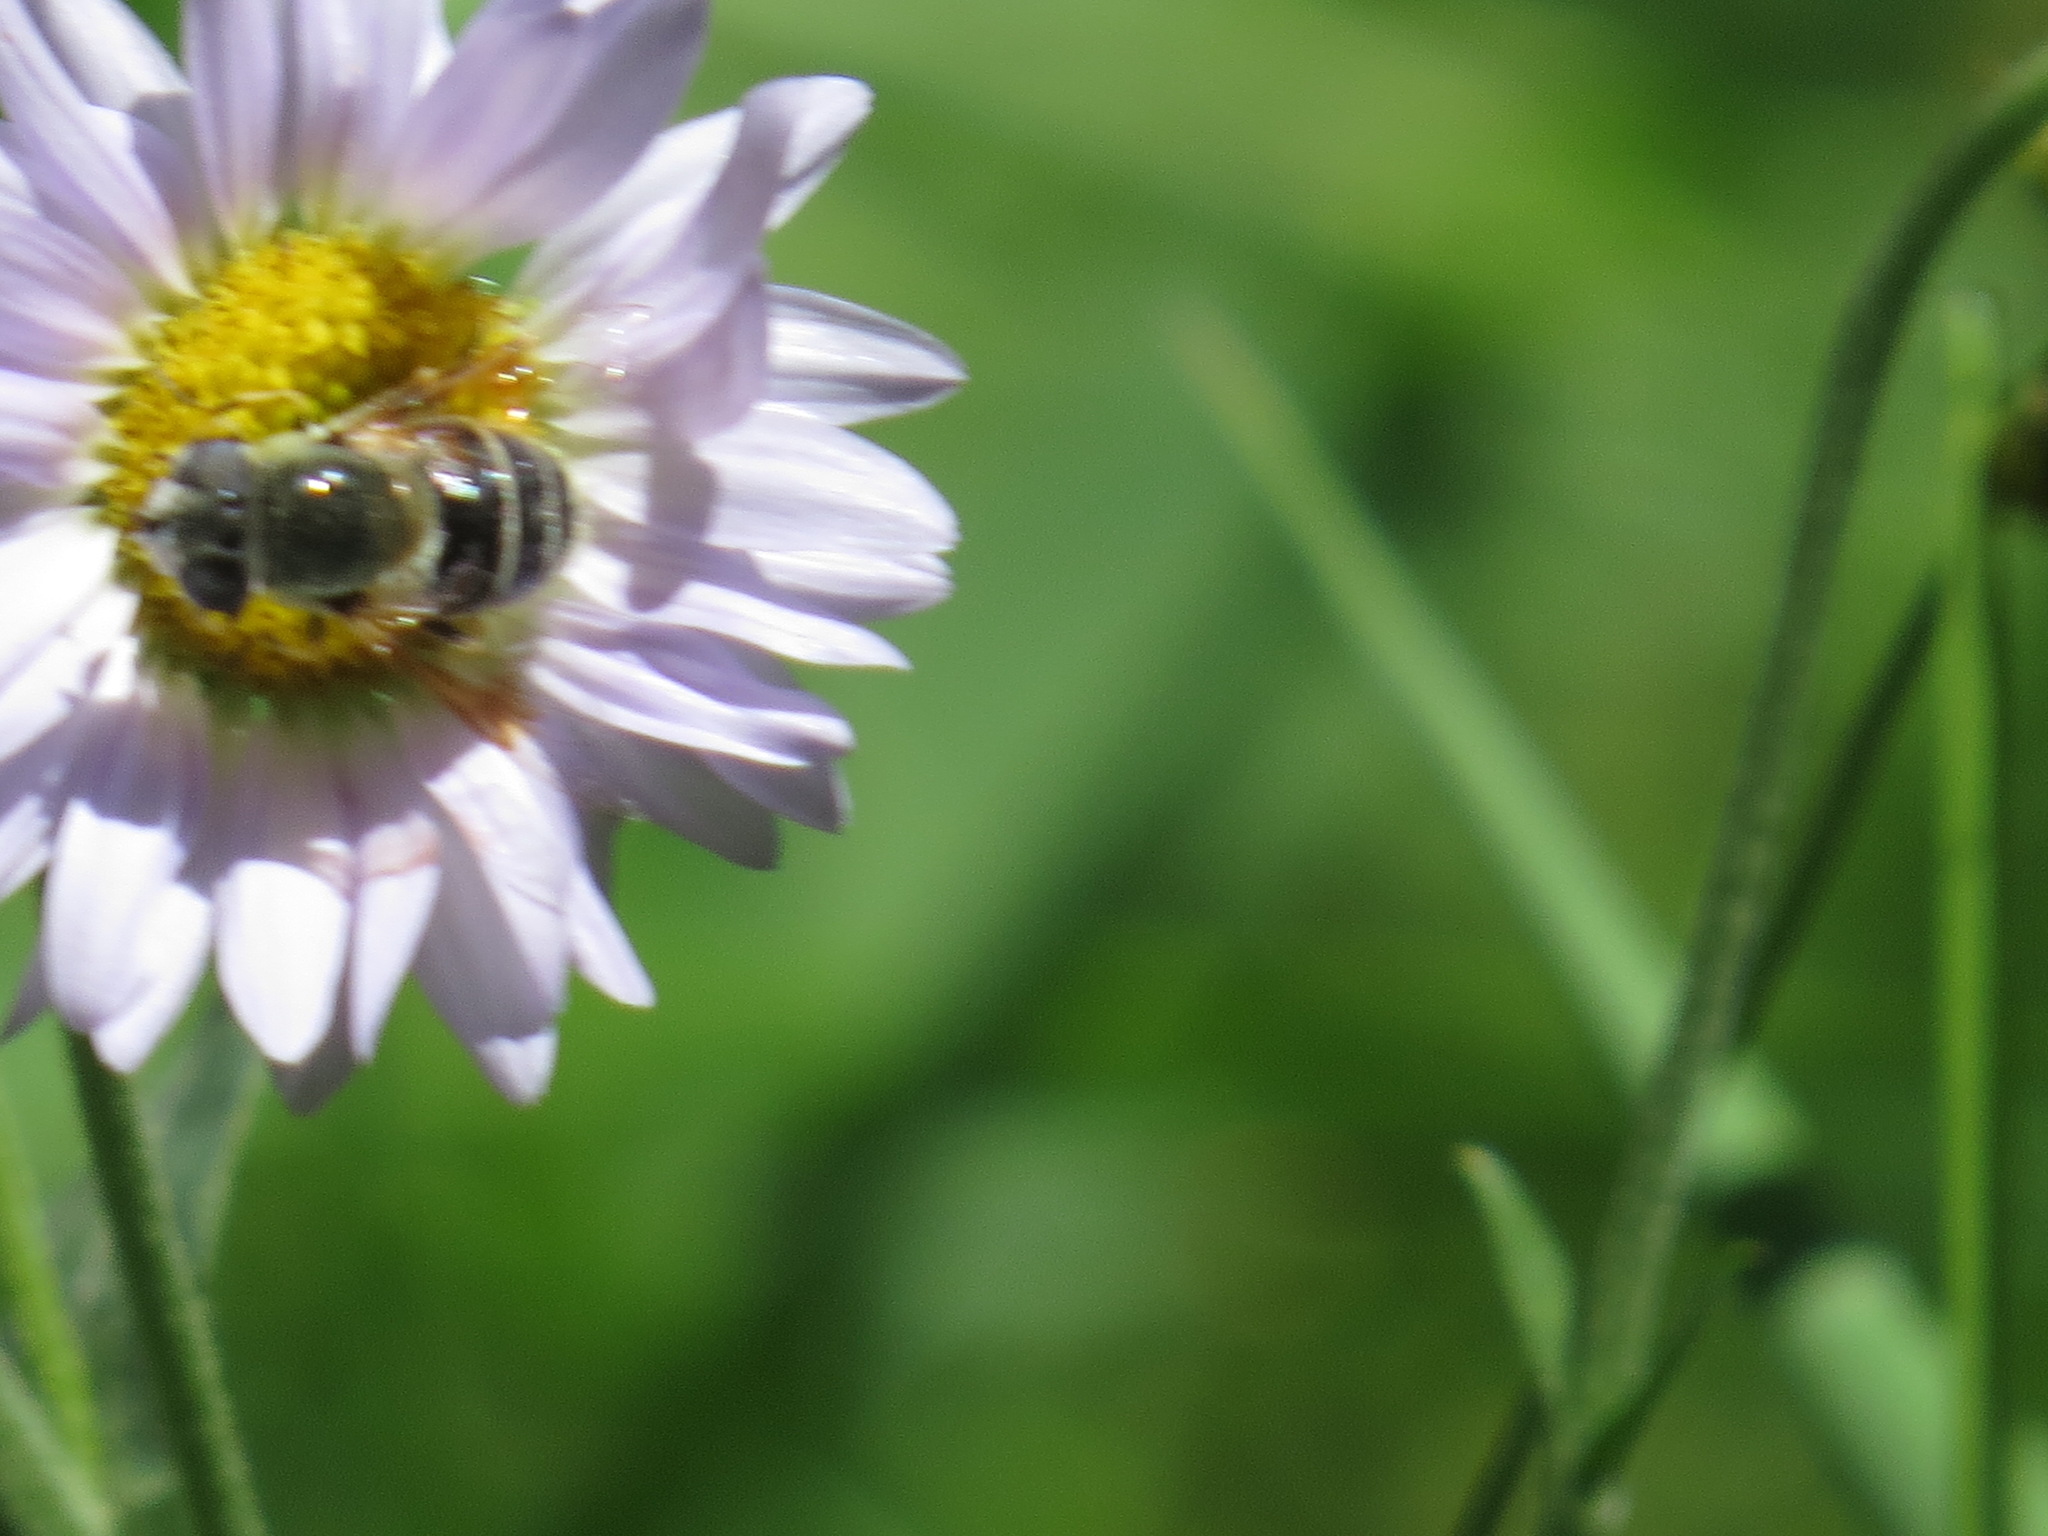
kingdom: Animalia
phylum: Arthropoda
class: Insecta
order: Diptera
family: Syrphidae
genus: Eristalis
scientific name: Eristalis stipator
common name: Yellow-shouldered drone fly
